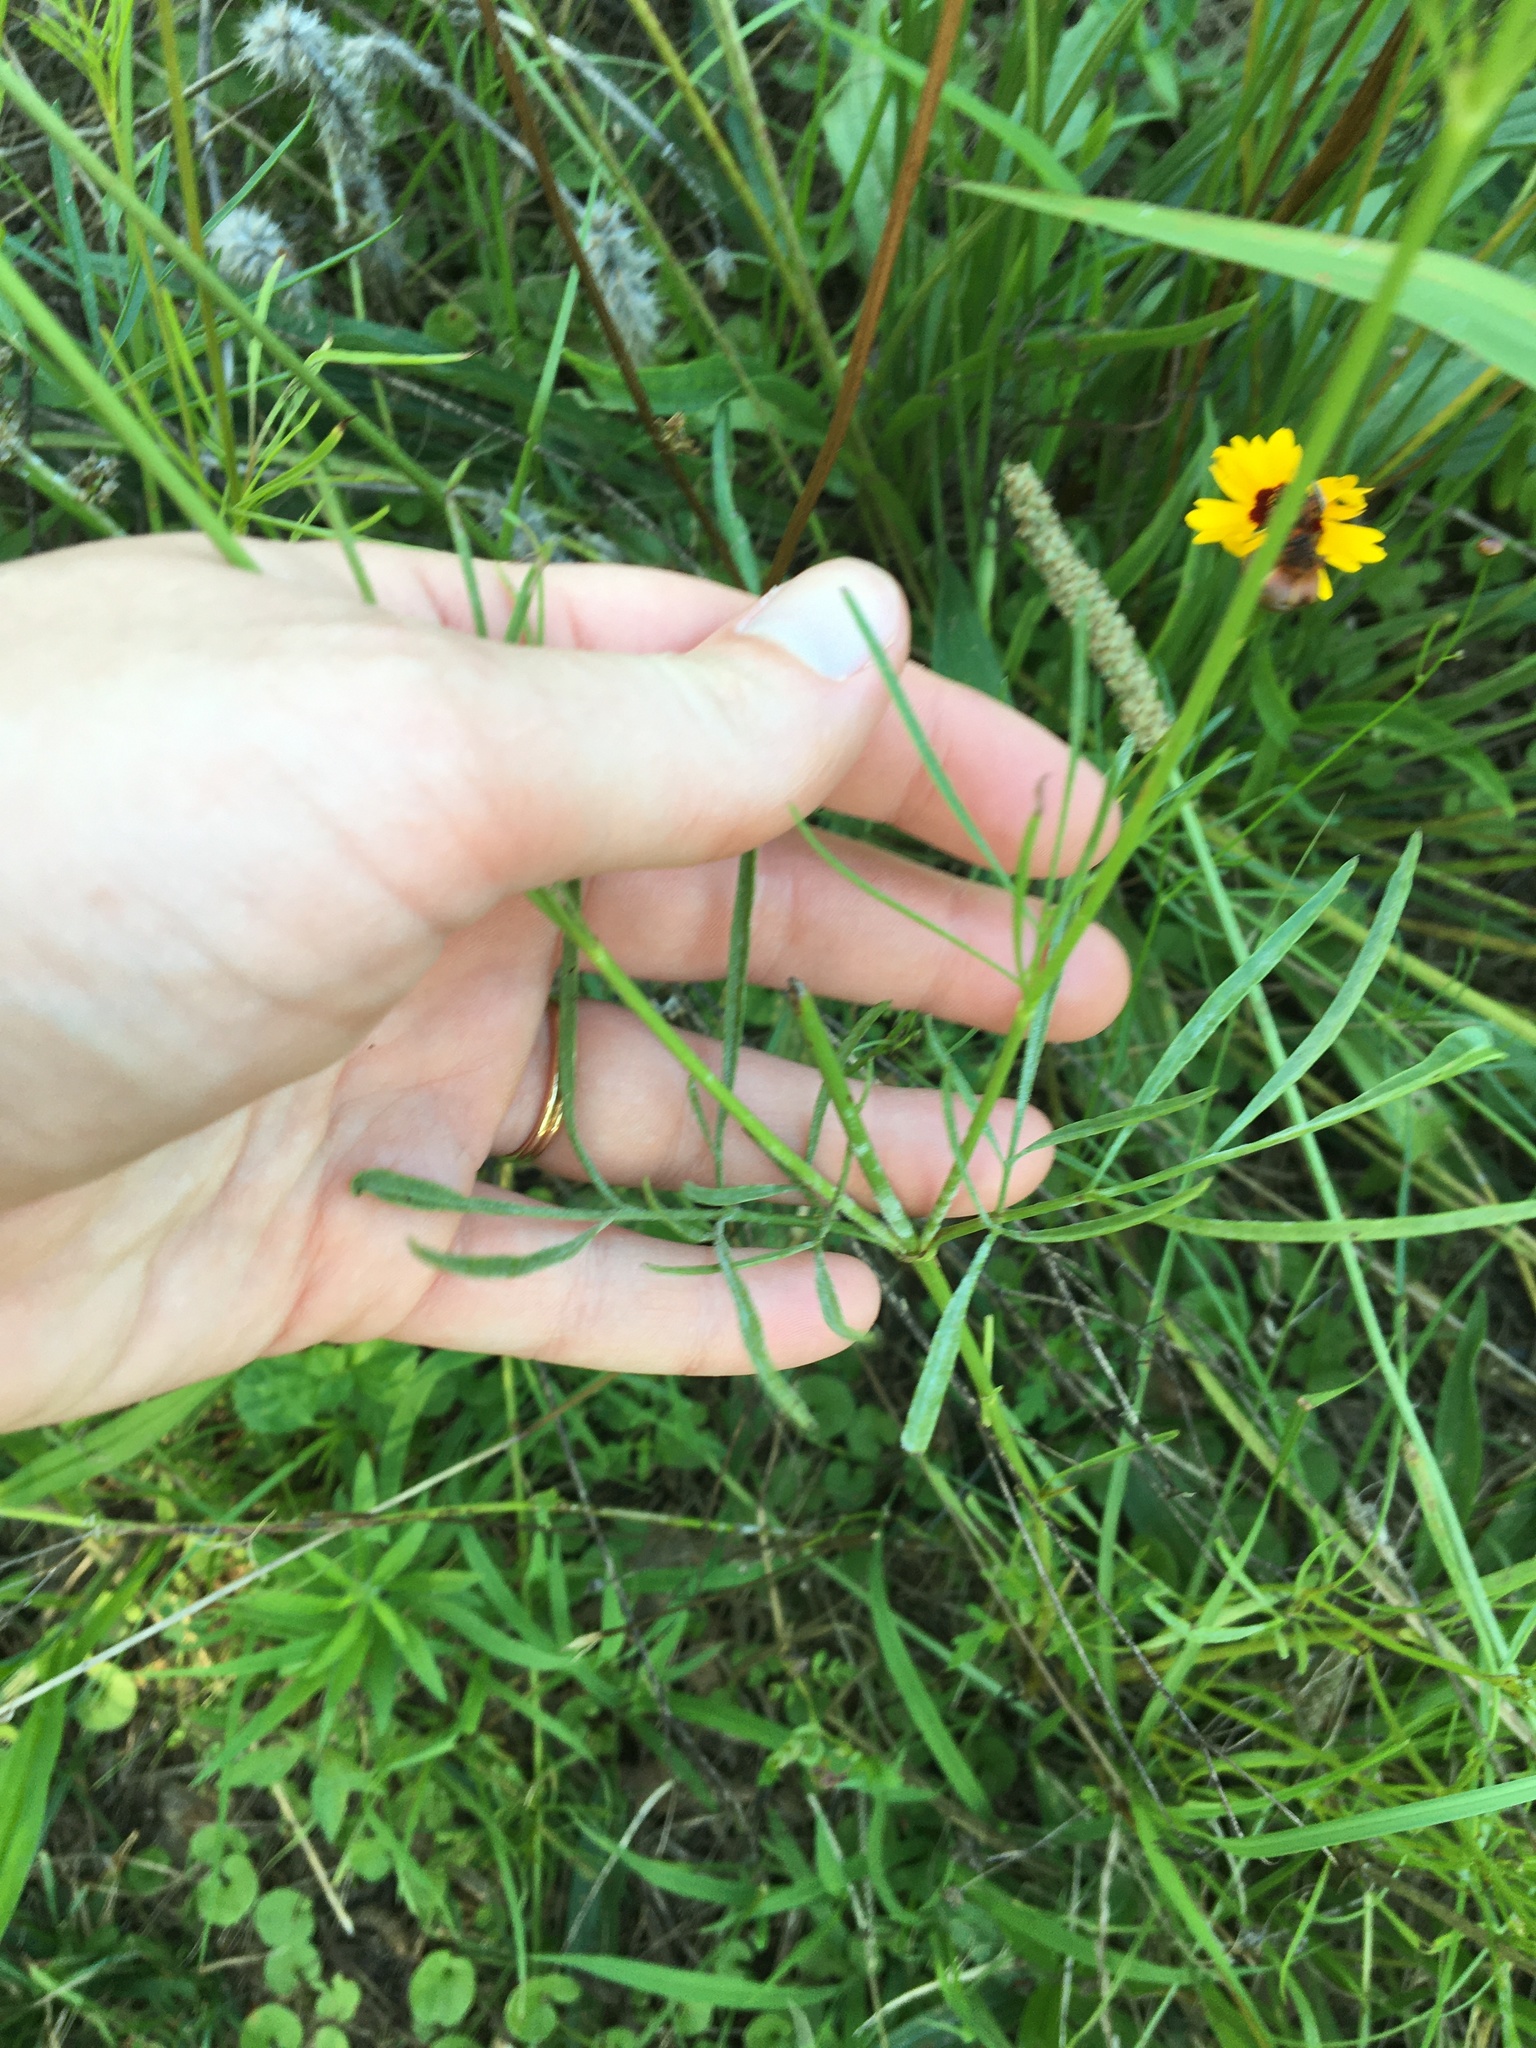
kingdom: Plantae
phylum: Tracheophyta
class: Magnoliopsida
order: Asterales
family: Asteraceae
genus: Coreopsis
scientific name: Coreopsis tinctoria
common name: Garden tickseed
